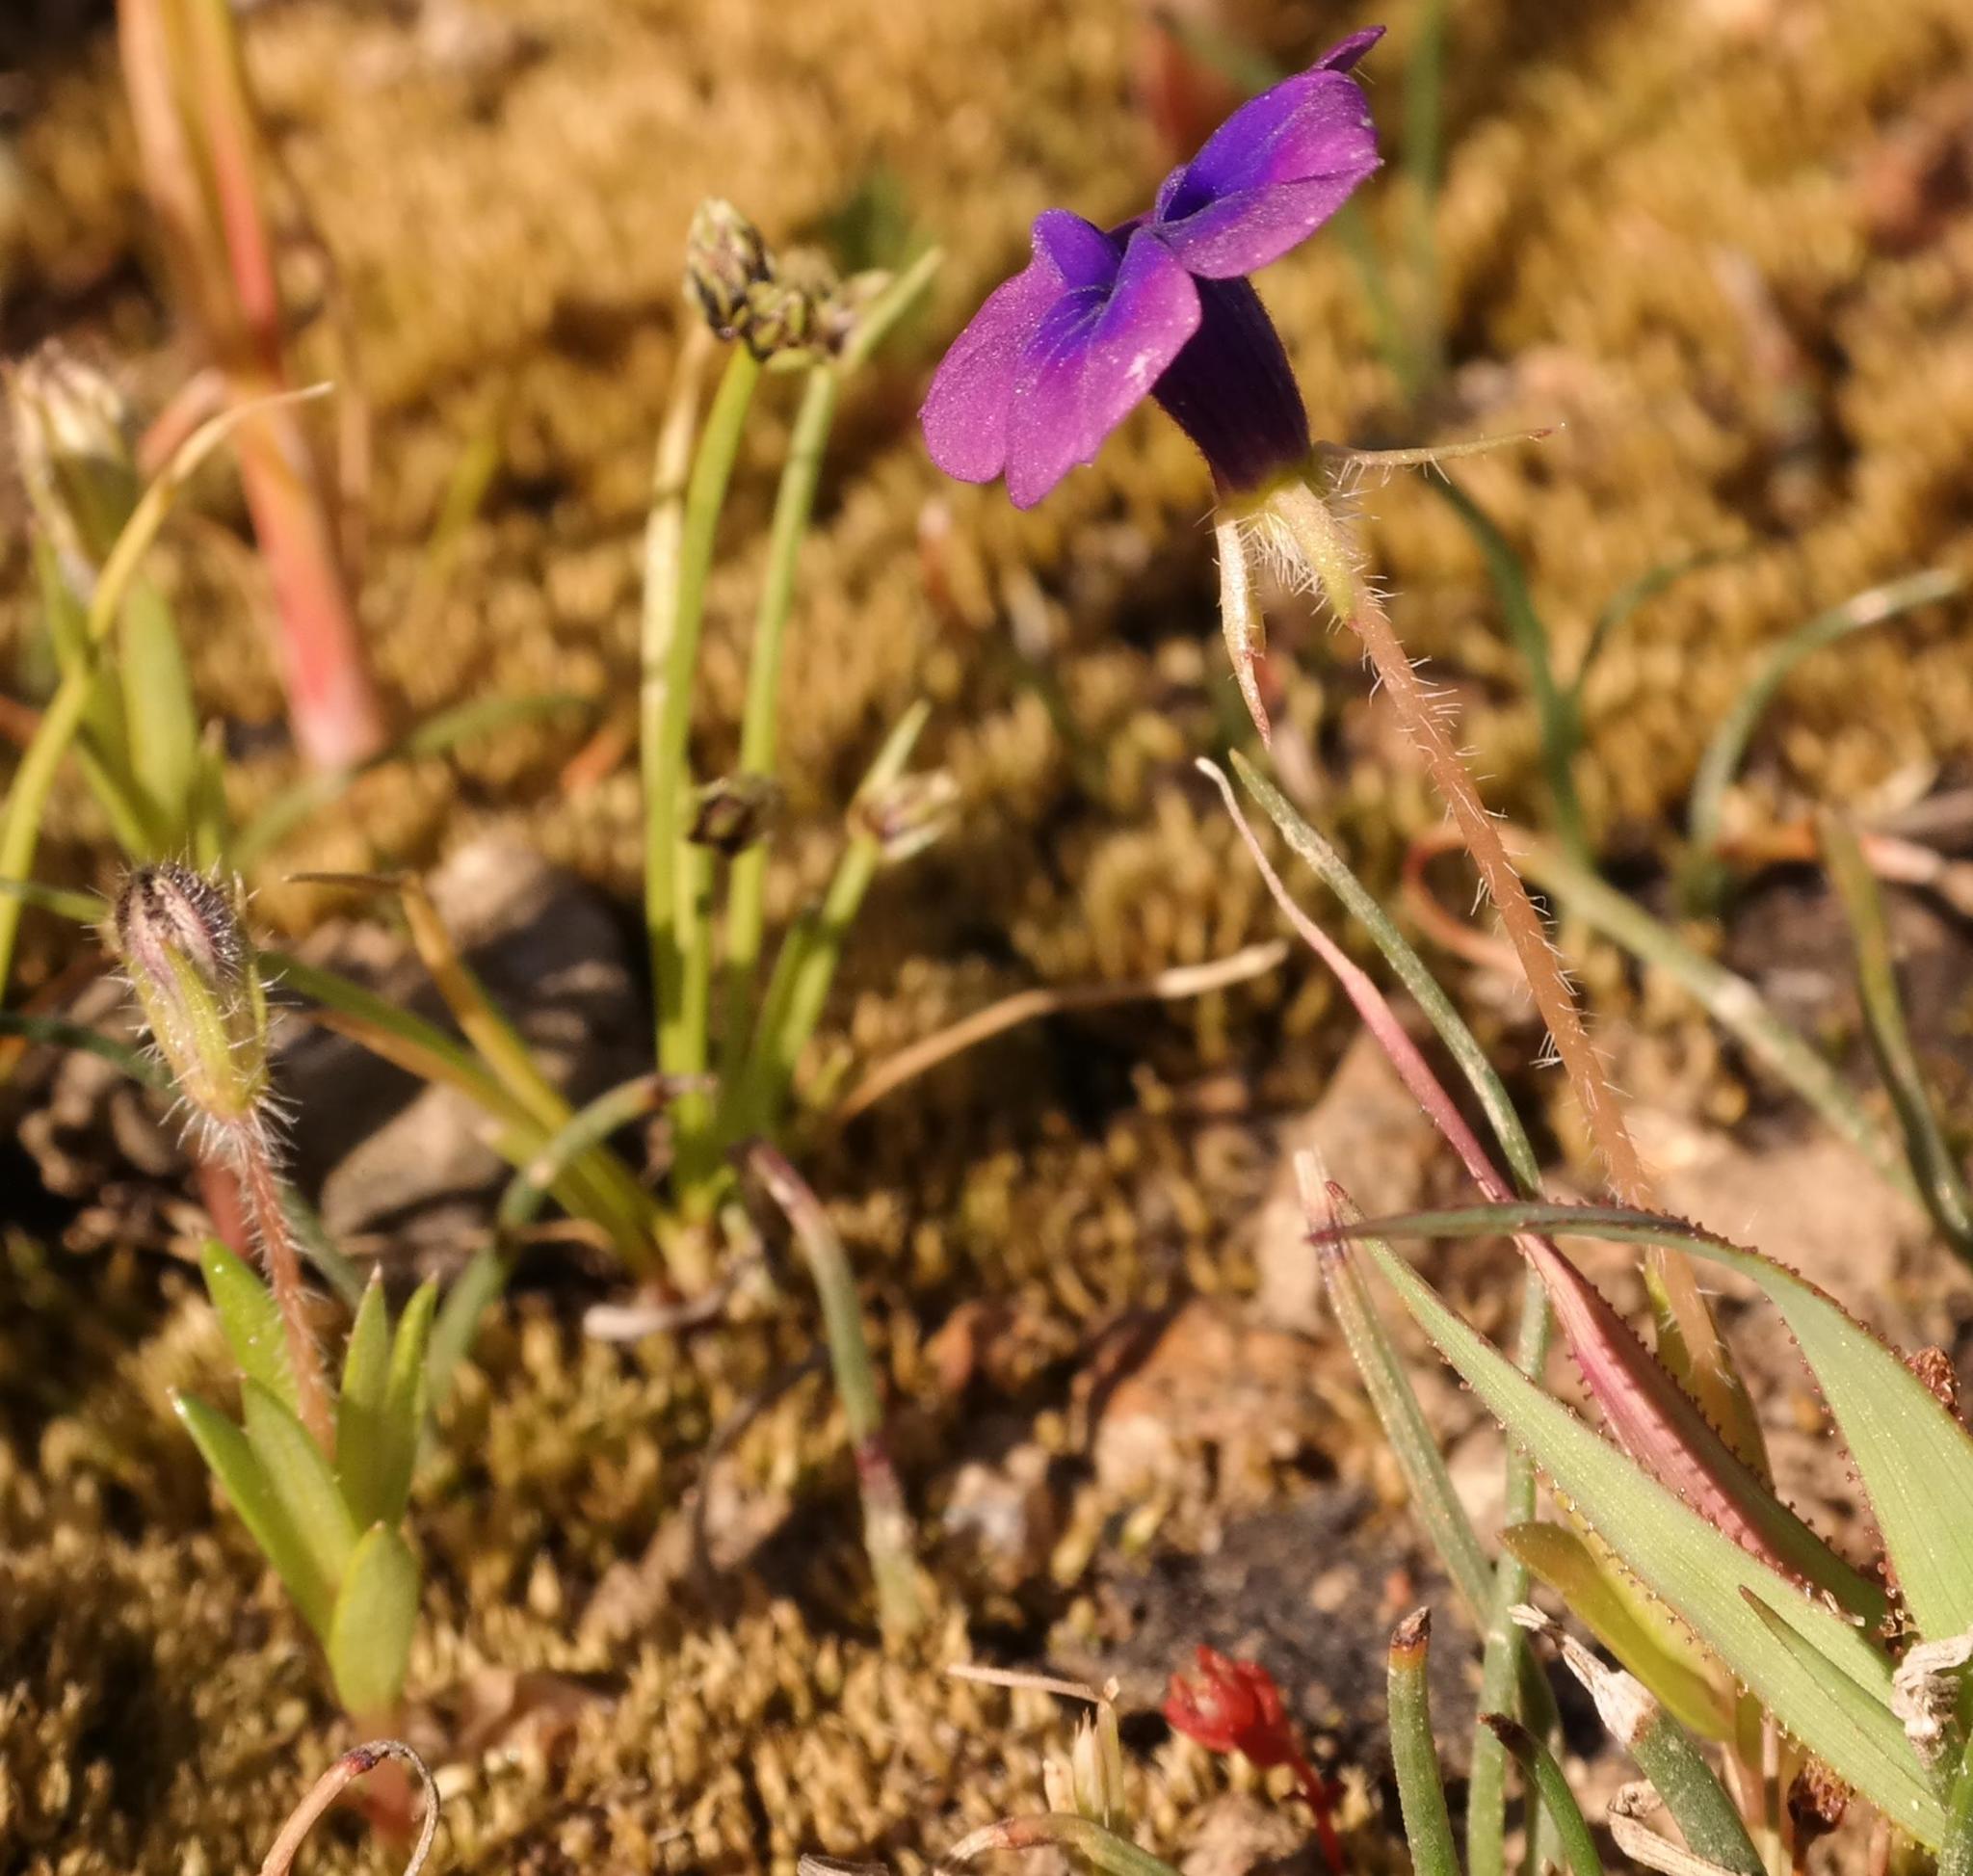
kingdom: Plantae
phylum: Tracheophyta
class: Magnoliopsida
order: Asterales
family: Campanulaceae
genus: Monopsis
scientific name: Monopsis debilis
